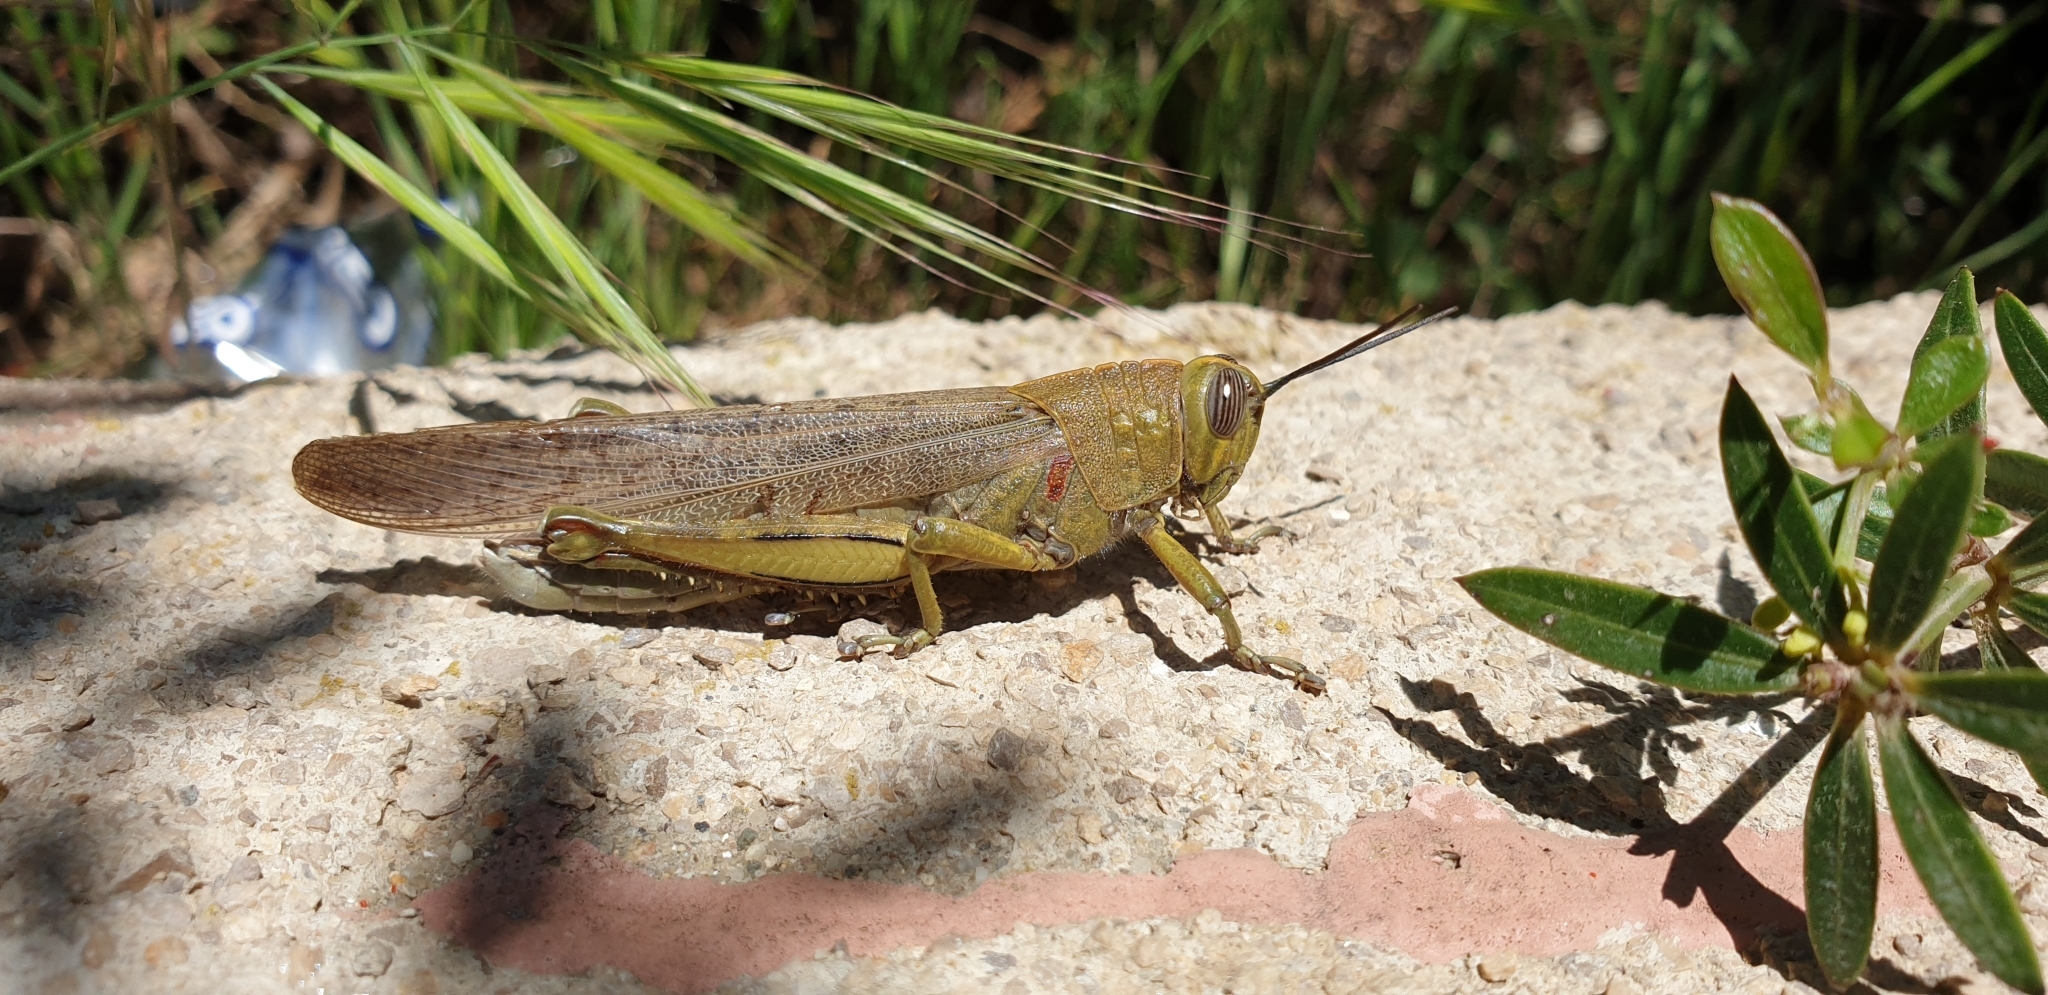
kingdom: Animalia
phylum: Arthropoda
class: Insecta
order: Orthoptera
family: Acrididae
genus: Anacridium
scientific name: Anacridium aegyptium
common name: Egyptian grasshopper
